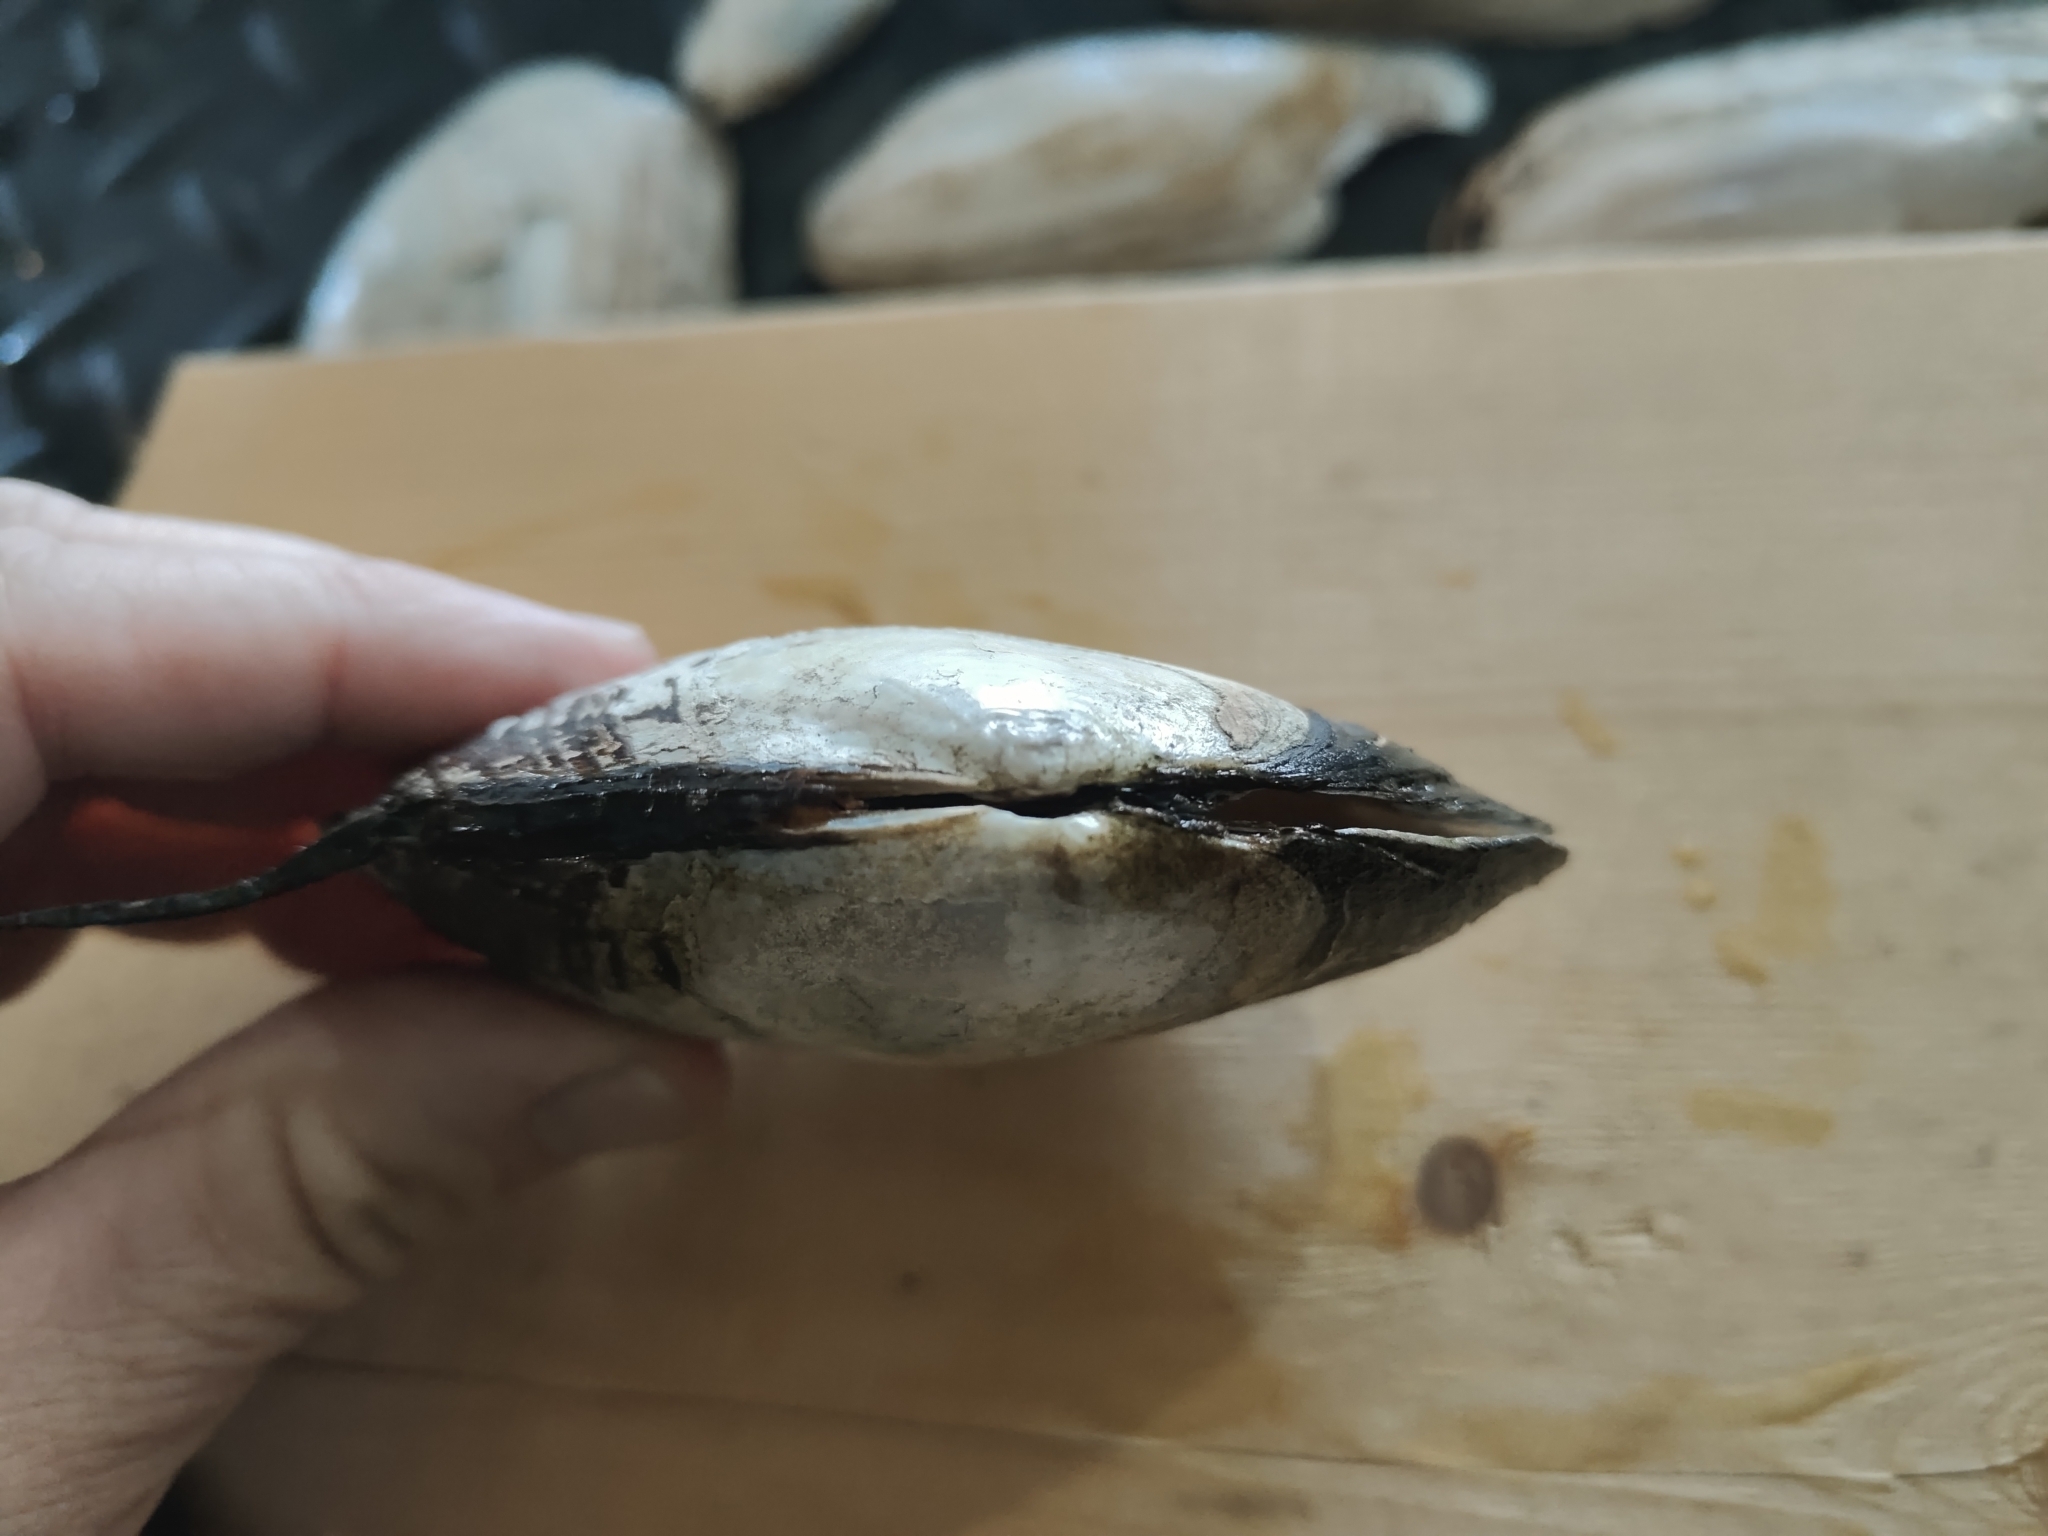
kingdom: Animalia
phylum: Mollusca
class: Bivalvia
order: Unionida
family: Unionidae
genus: Lasmigona
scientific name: Lasmigona complanata
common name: White heelsplitter
